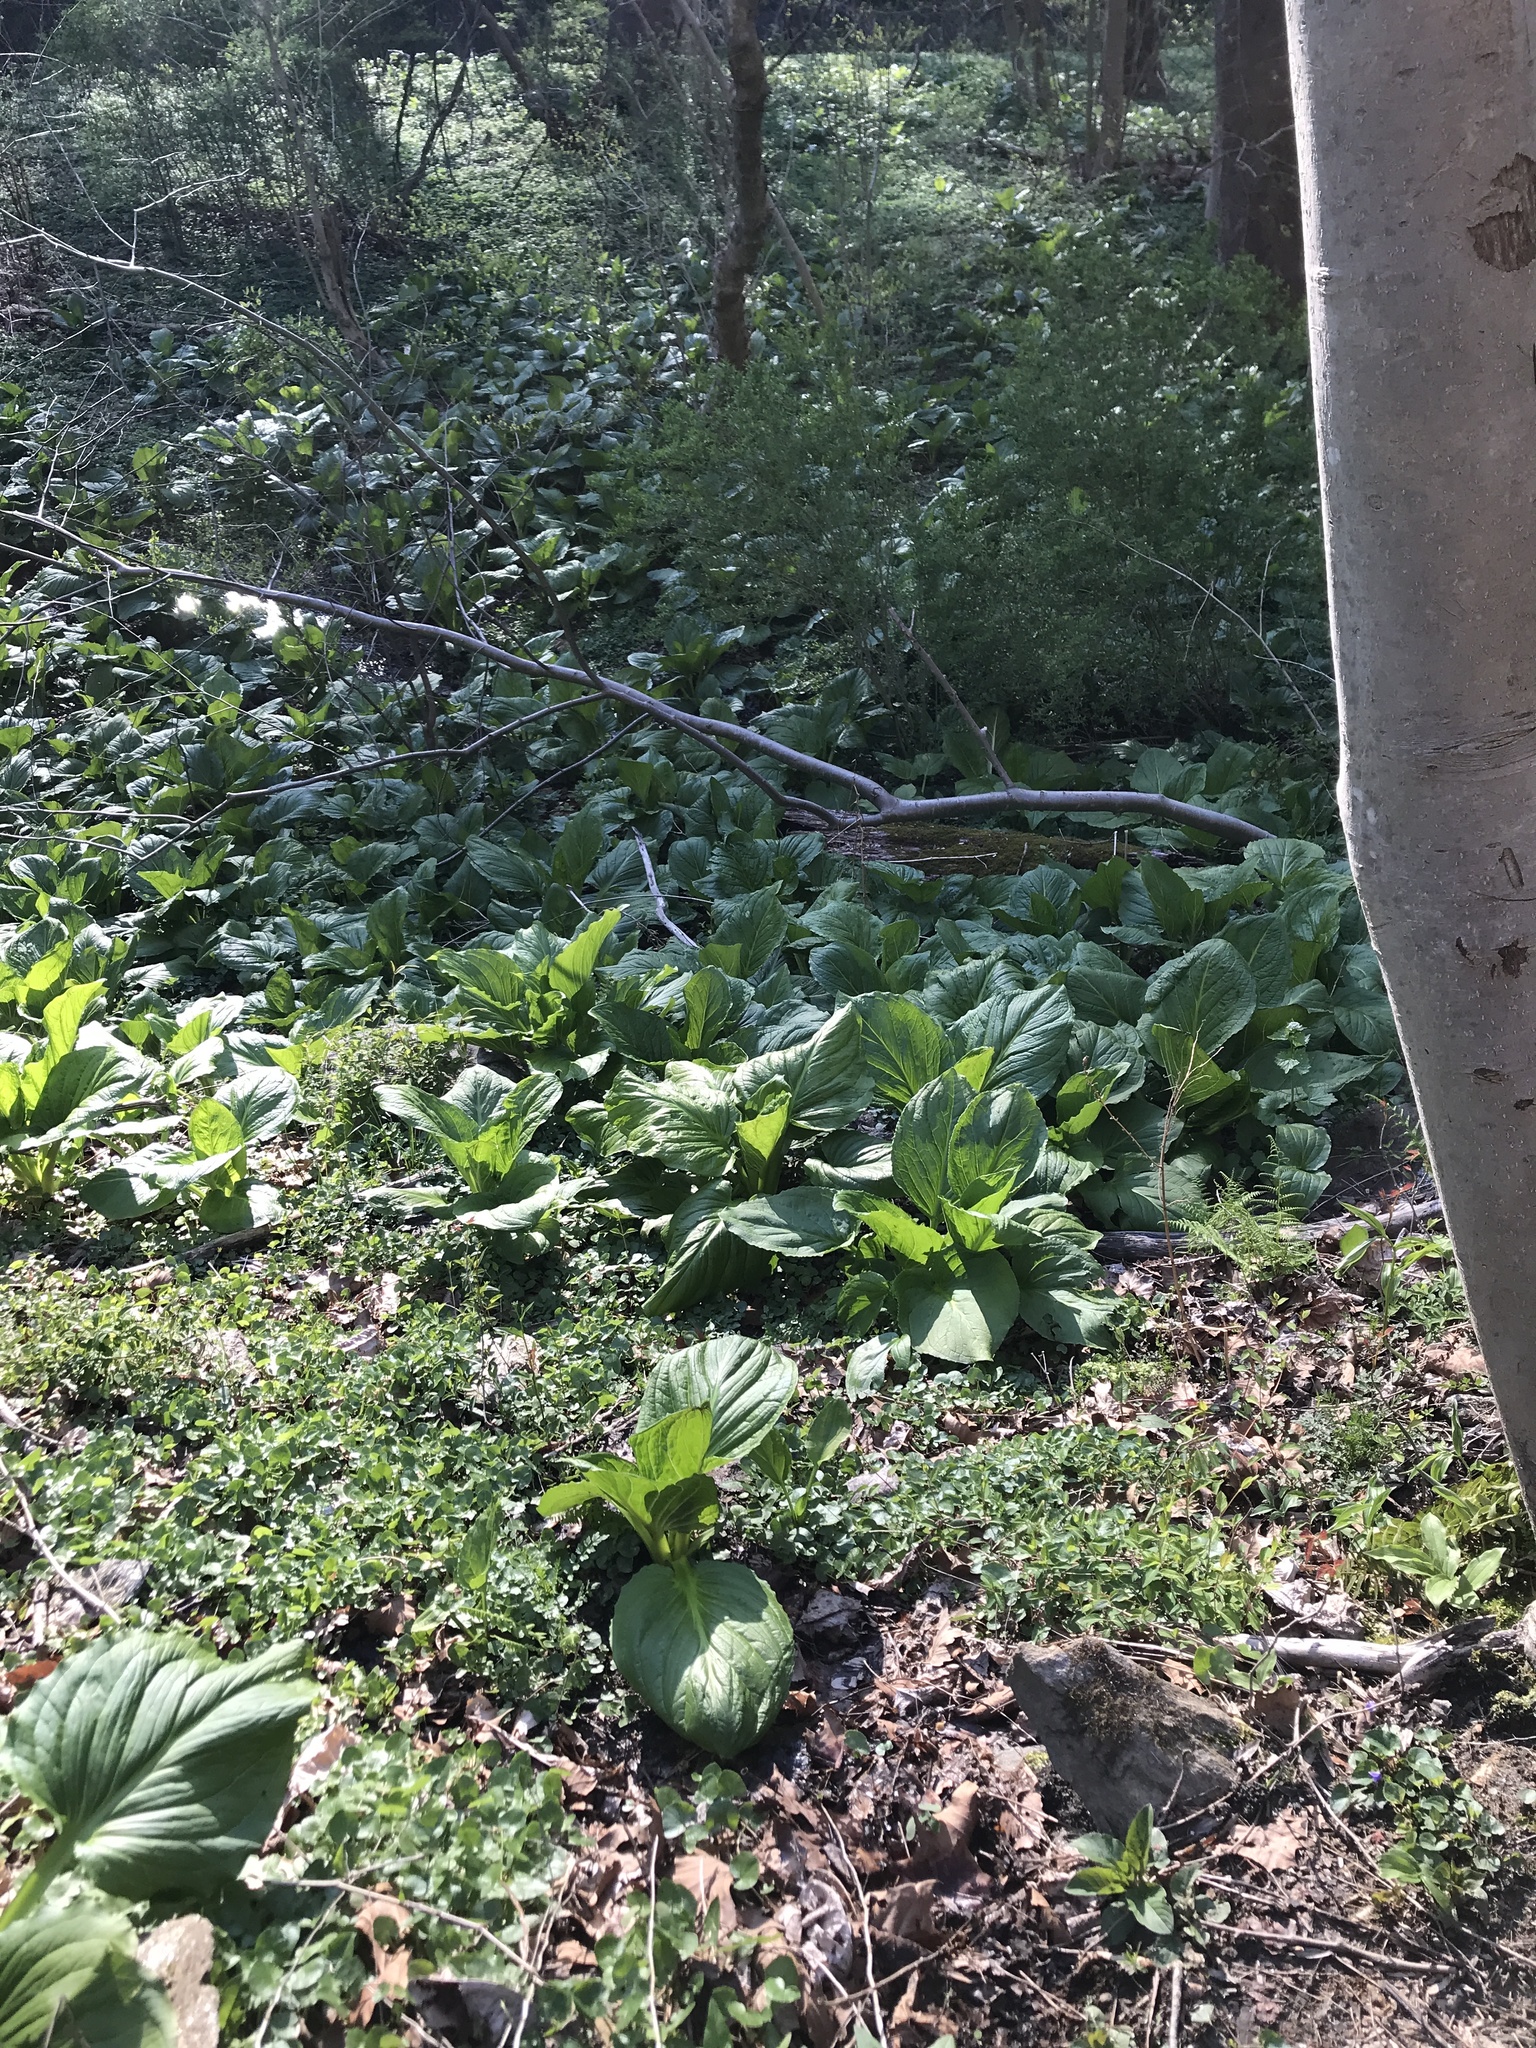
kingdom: Plantae
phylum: Tracheophyta
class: Liliopsida
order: Alismatales
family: Araceae
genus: Symplocarpus
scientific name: Symplocarpus foetidus
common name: Eastern skunk cabbage
